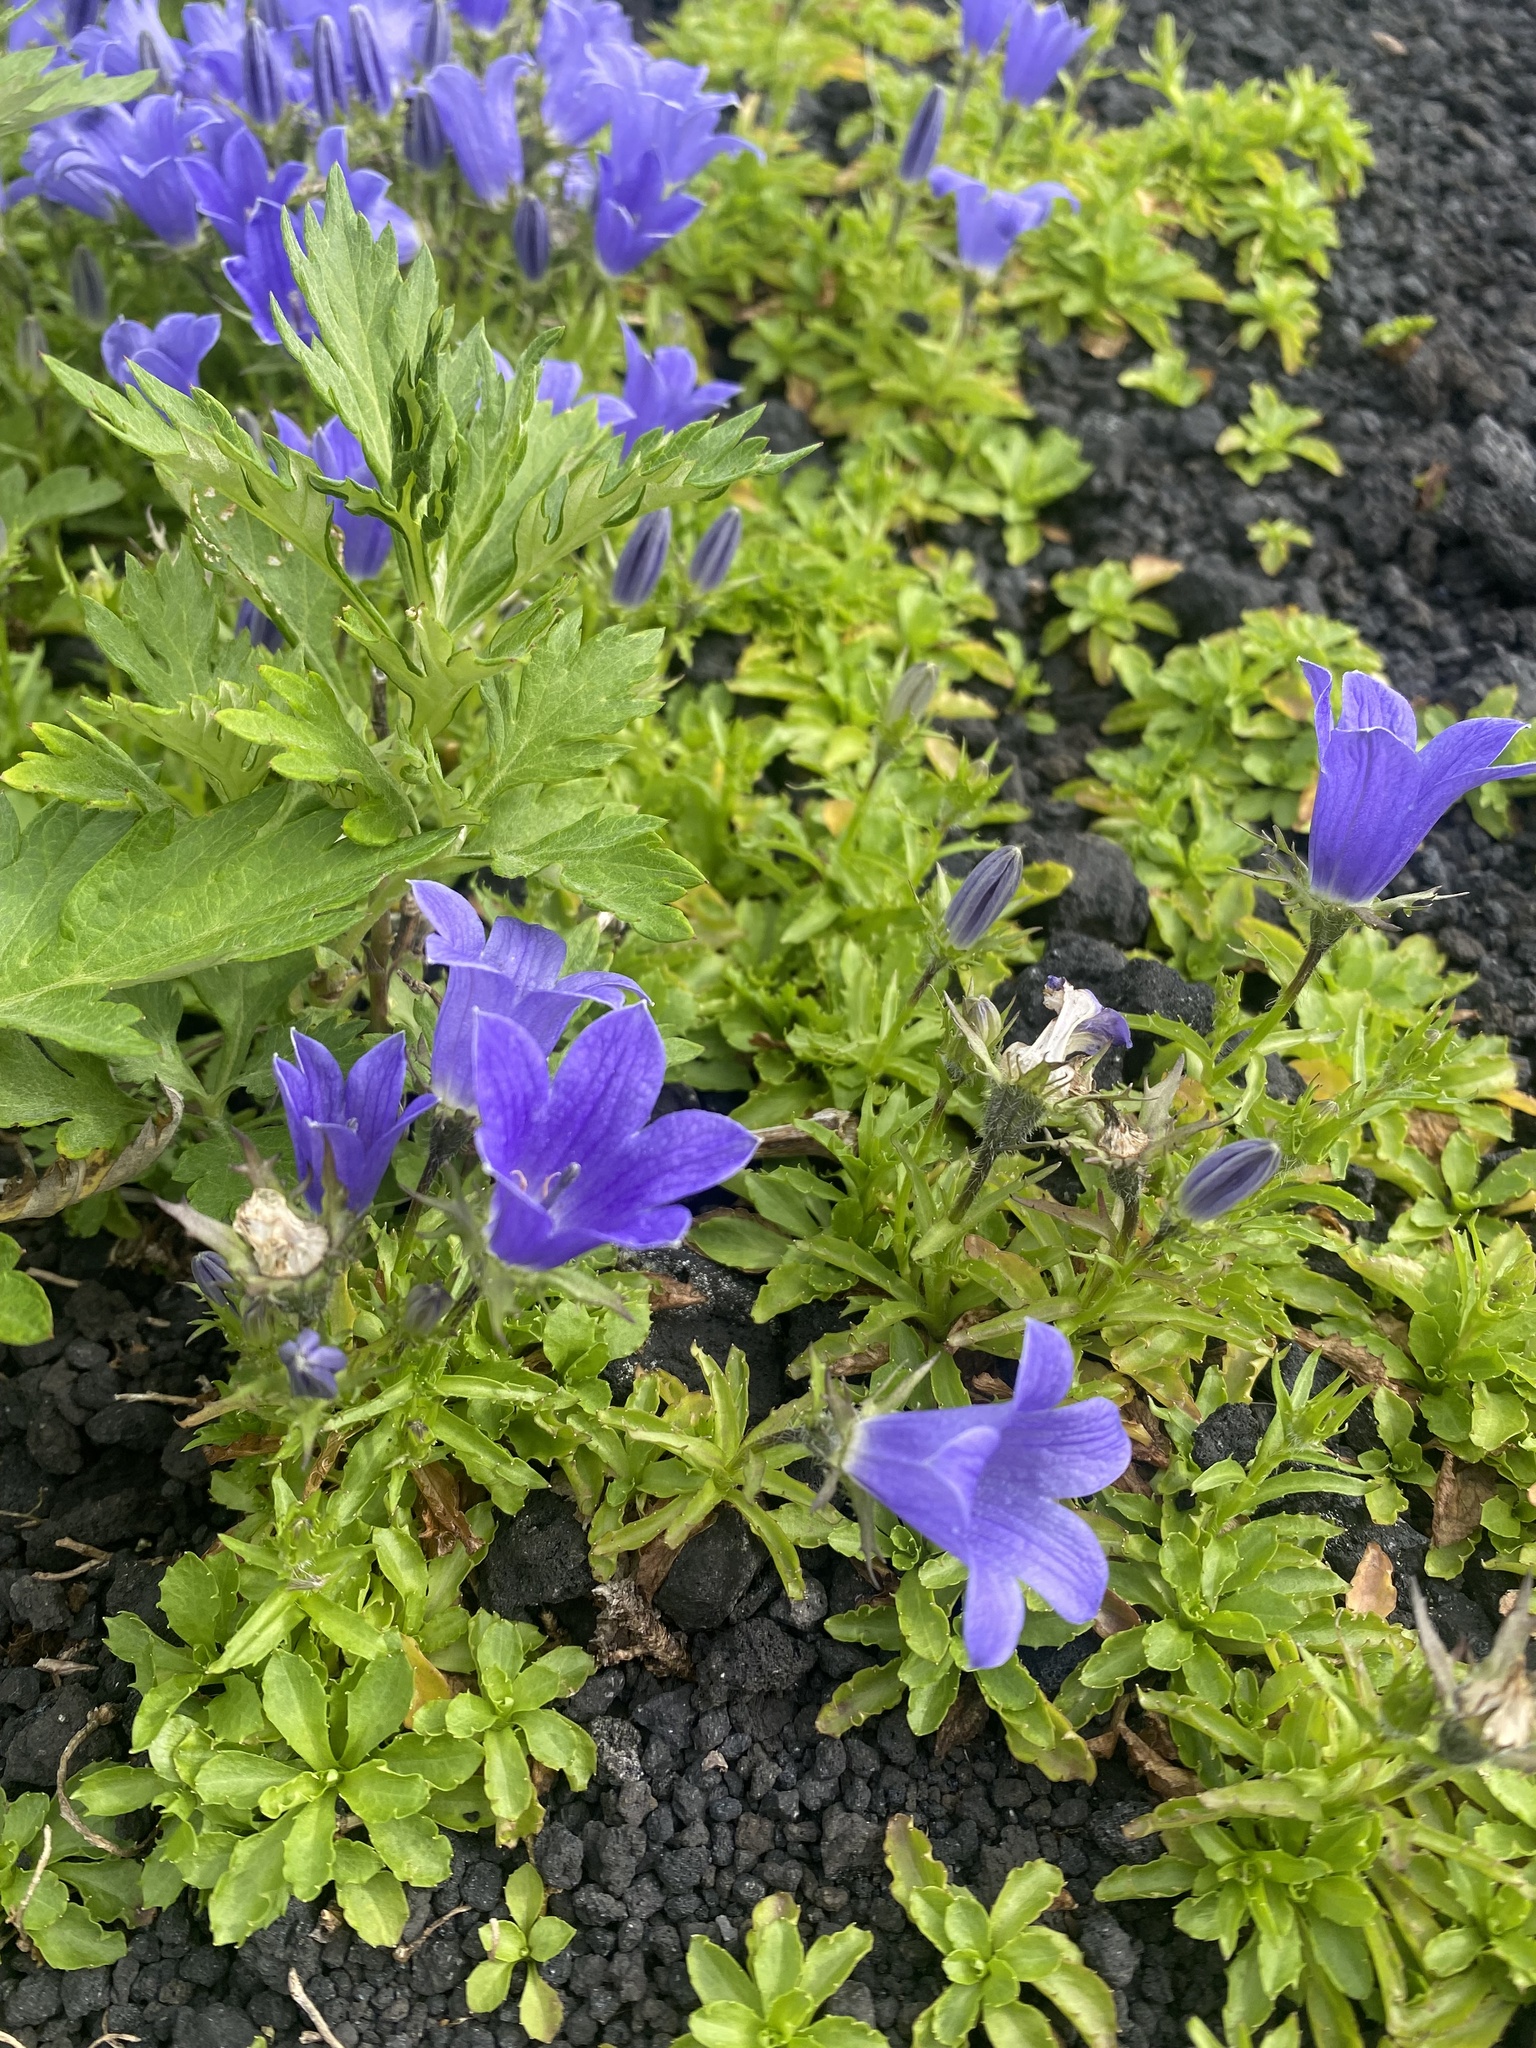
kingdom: Plantae
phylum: Tracheophyta
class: Magnoliopsida
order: Asterales
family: Campanulaceae
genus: Campanula
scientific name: Campanula dasyantha
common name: Hairyflower bellflower
